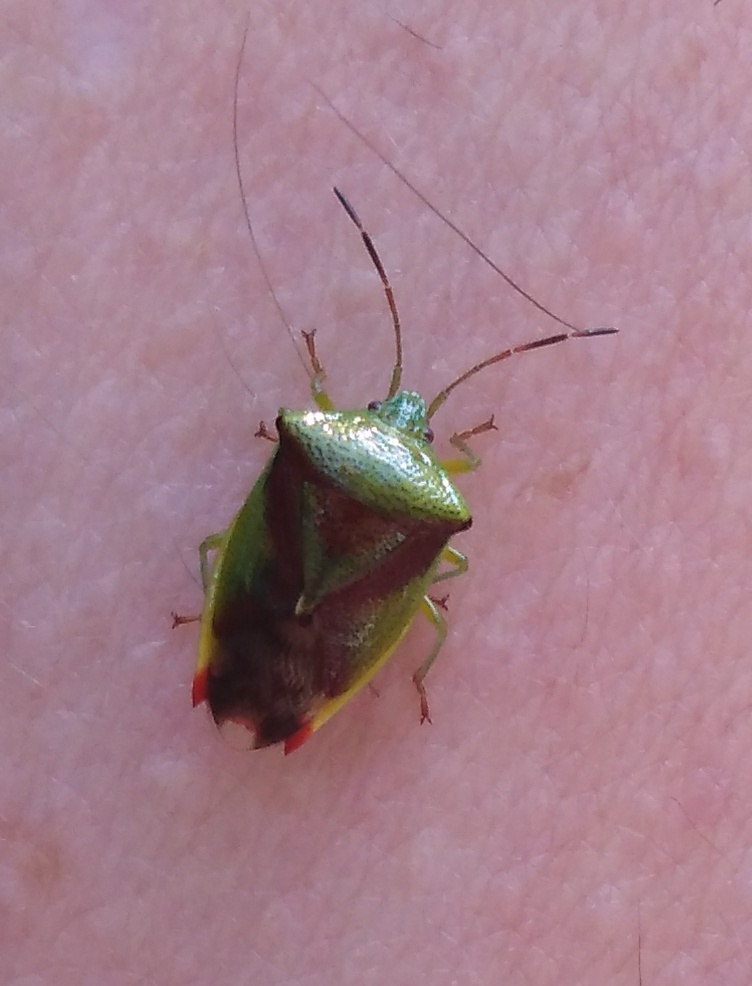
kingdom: Animalia
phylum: Arthropoda
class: Insecta
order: Hemiptera
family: Acanthosomatidae
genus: Elasmostethus
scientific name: Elasmostethus interstinctus
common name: Birch shieldbug
